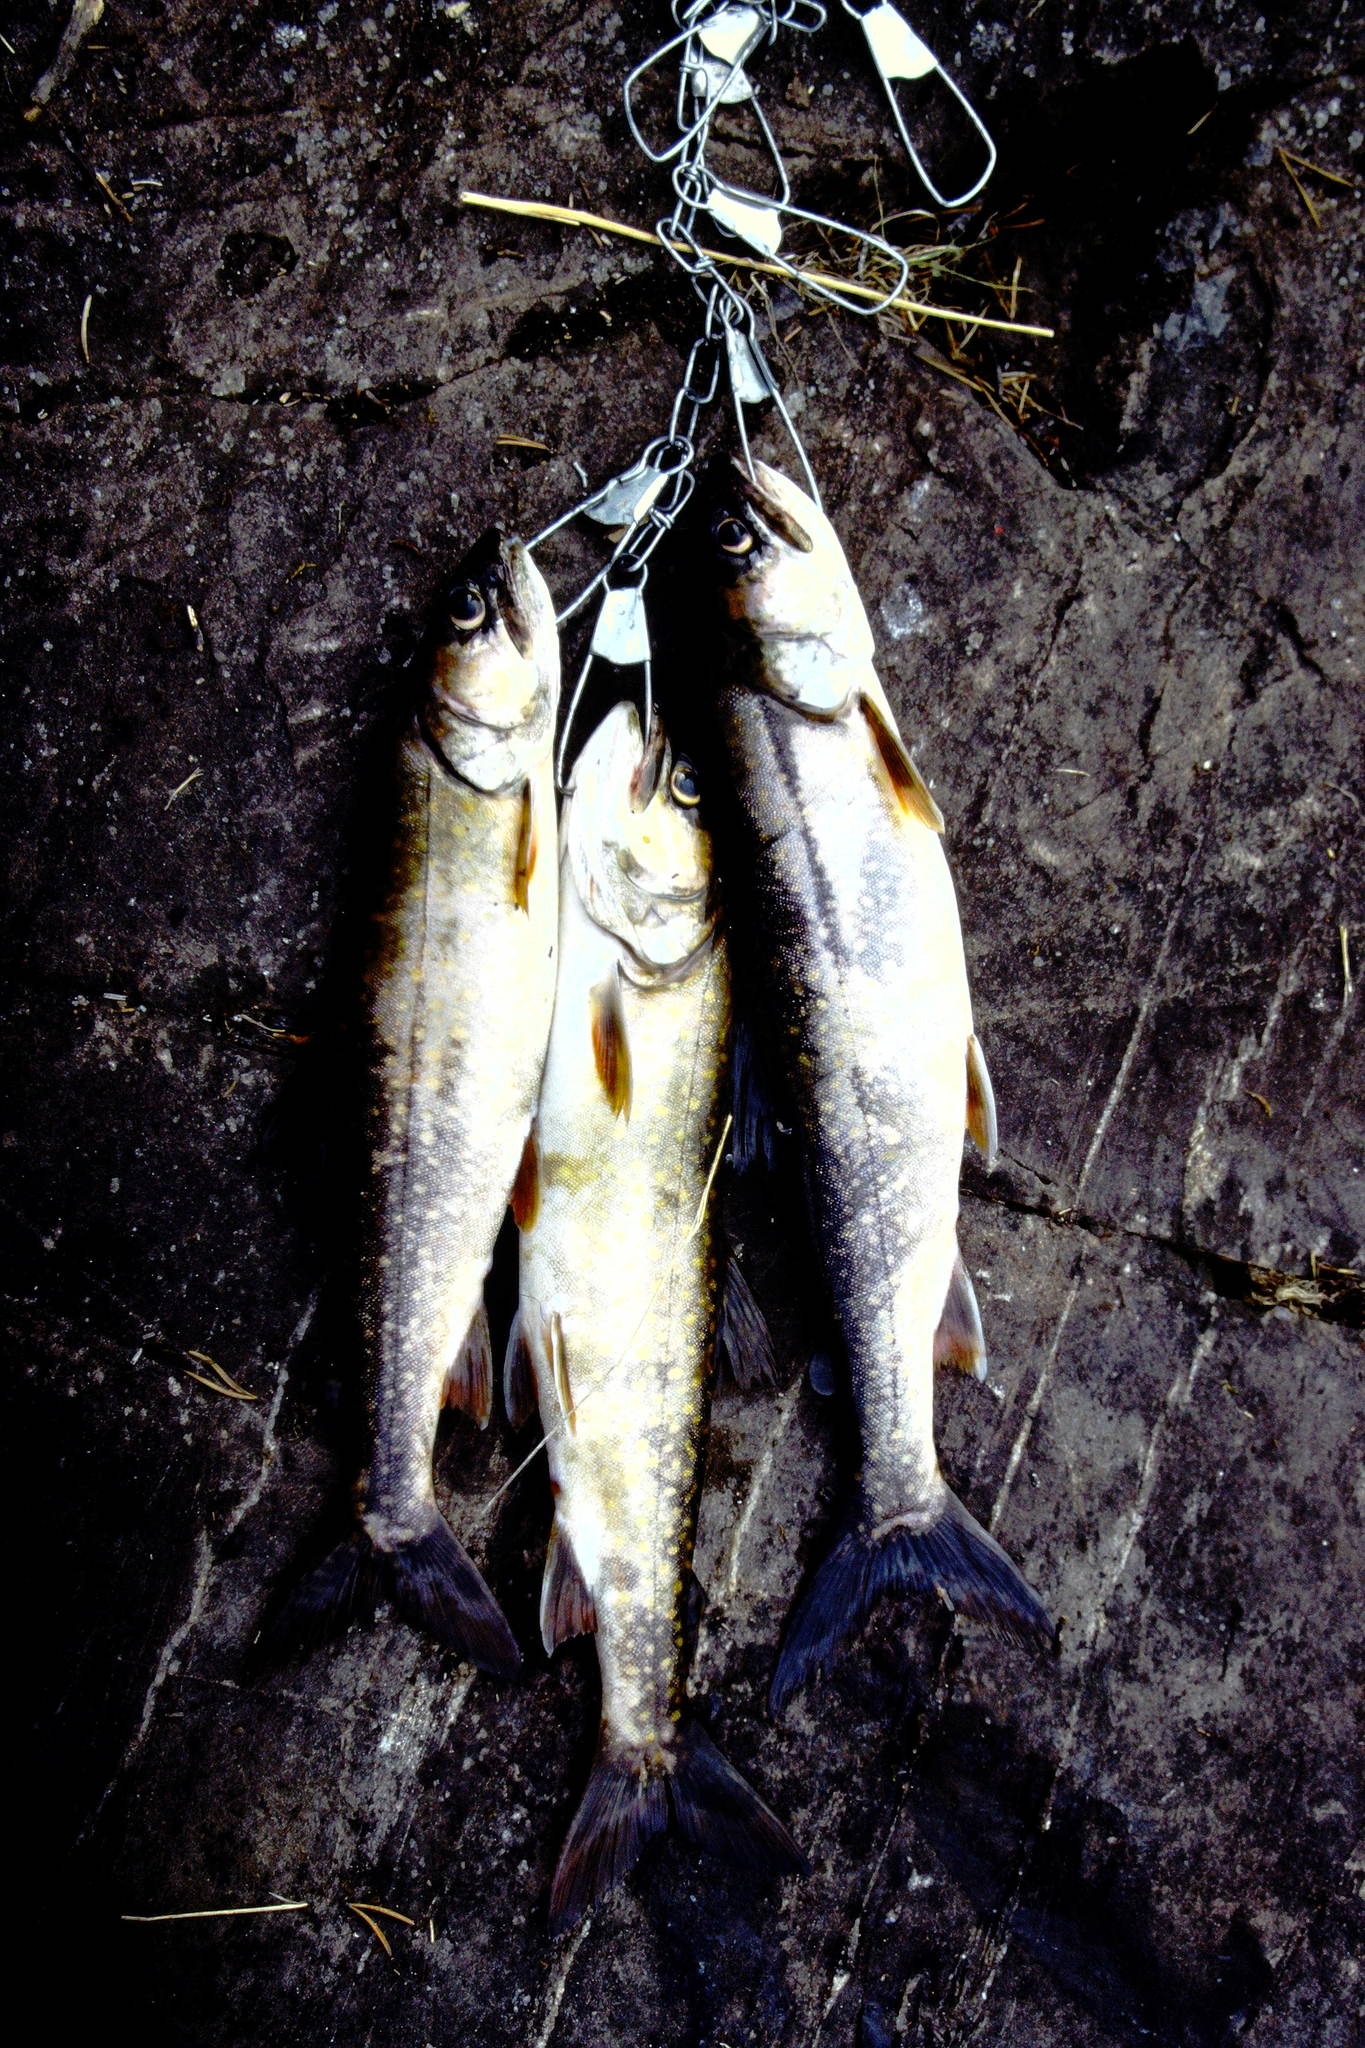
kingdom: Animalia
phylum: Chordata
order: Salmoniformes
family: Salmonidae
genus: Salvelinus
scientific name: Salvelinus namaycush
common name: American lake charr
